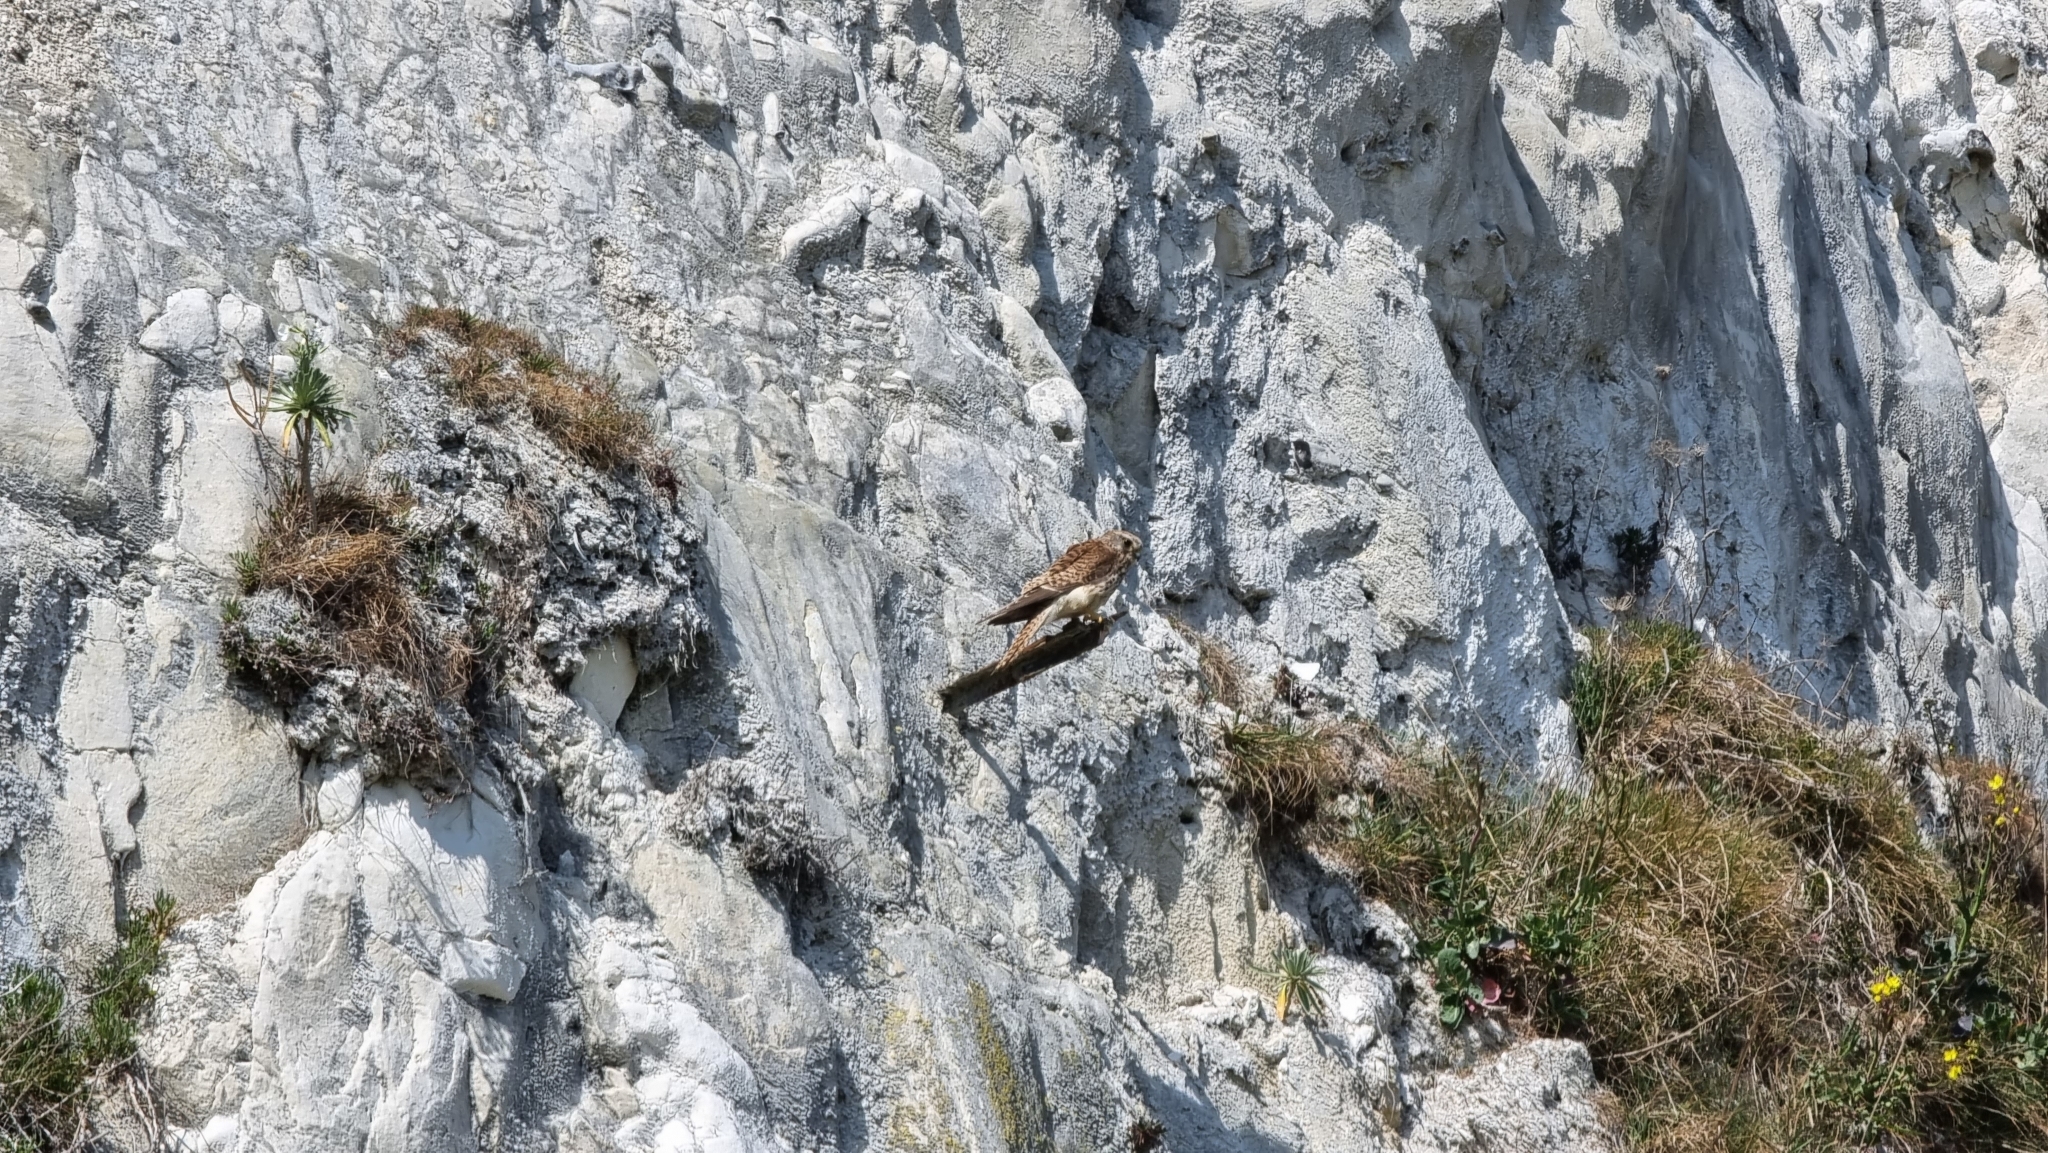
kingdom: Animalia
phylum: Chordata
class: Aves
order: Falconiformes
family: Falconidae
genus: Falco
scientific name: Falco tinnunculus
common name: Common kestrel
